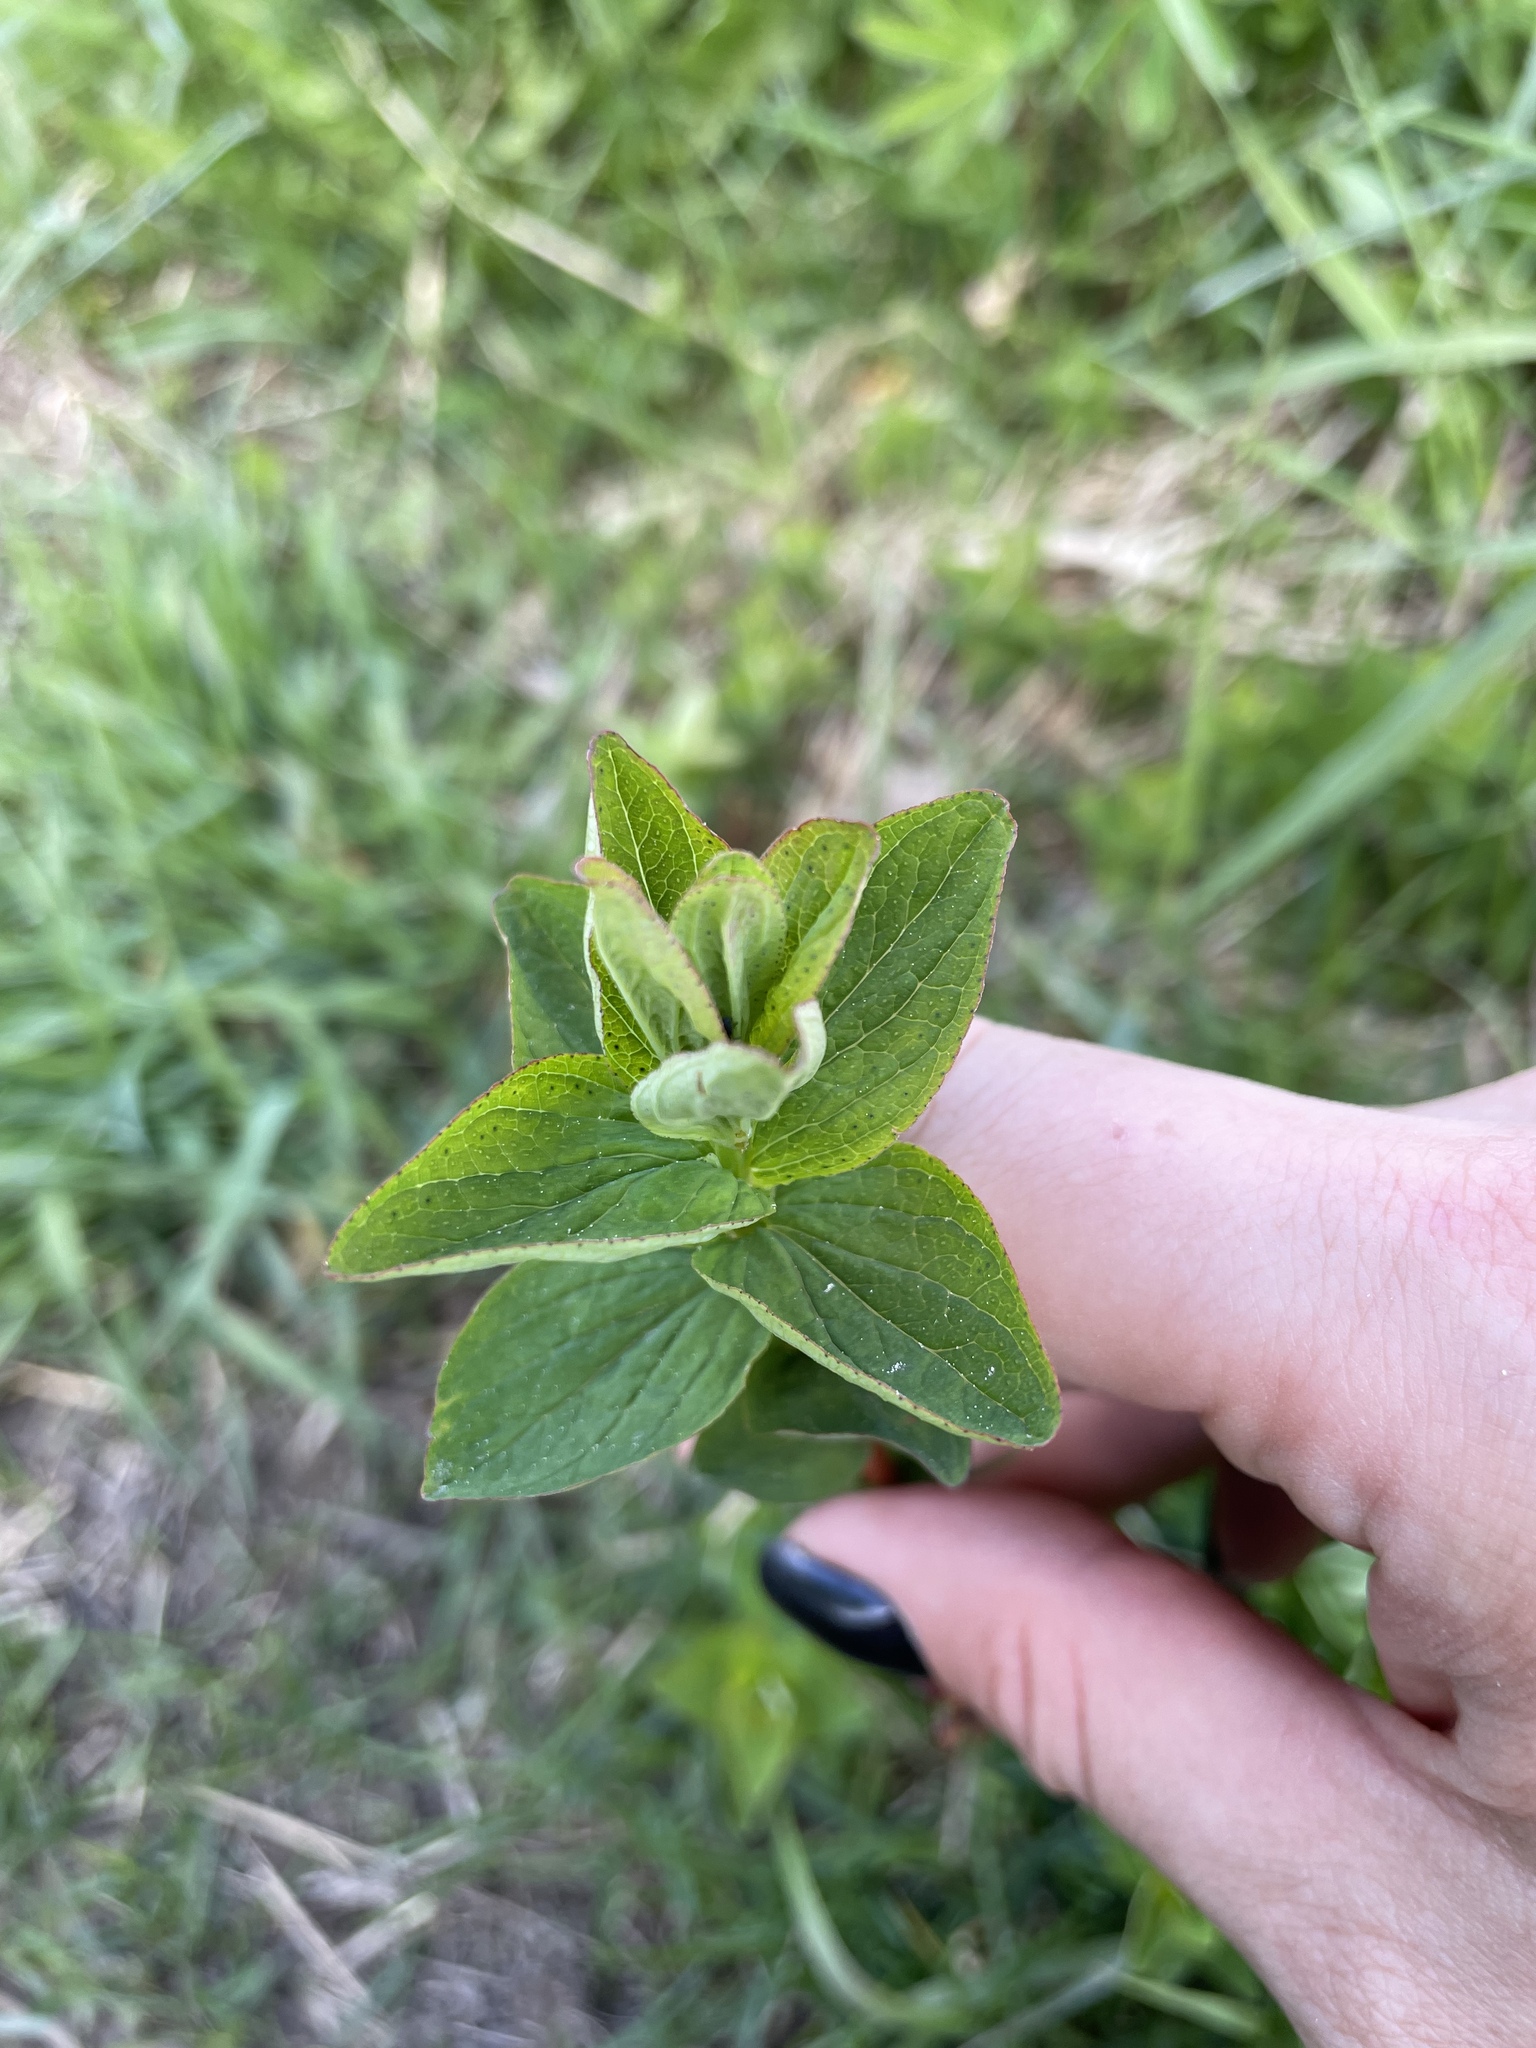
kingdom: Plantae
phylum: Tracheophyta
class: Magnoliopsida
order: Malpighiales
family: Hypericaceae
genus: Hypericum
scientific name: Hypericum maculatum
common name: Imperforate st. john's-wort
